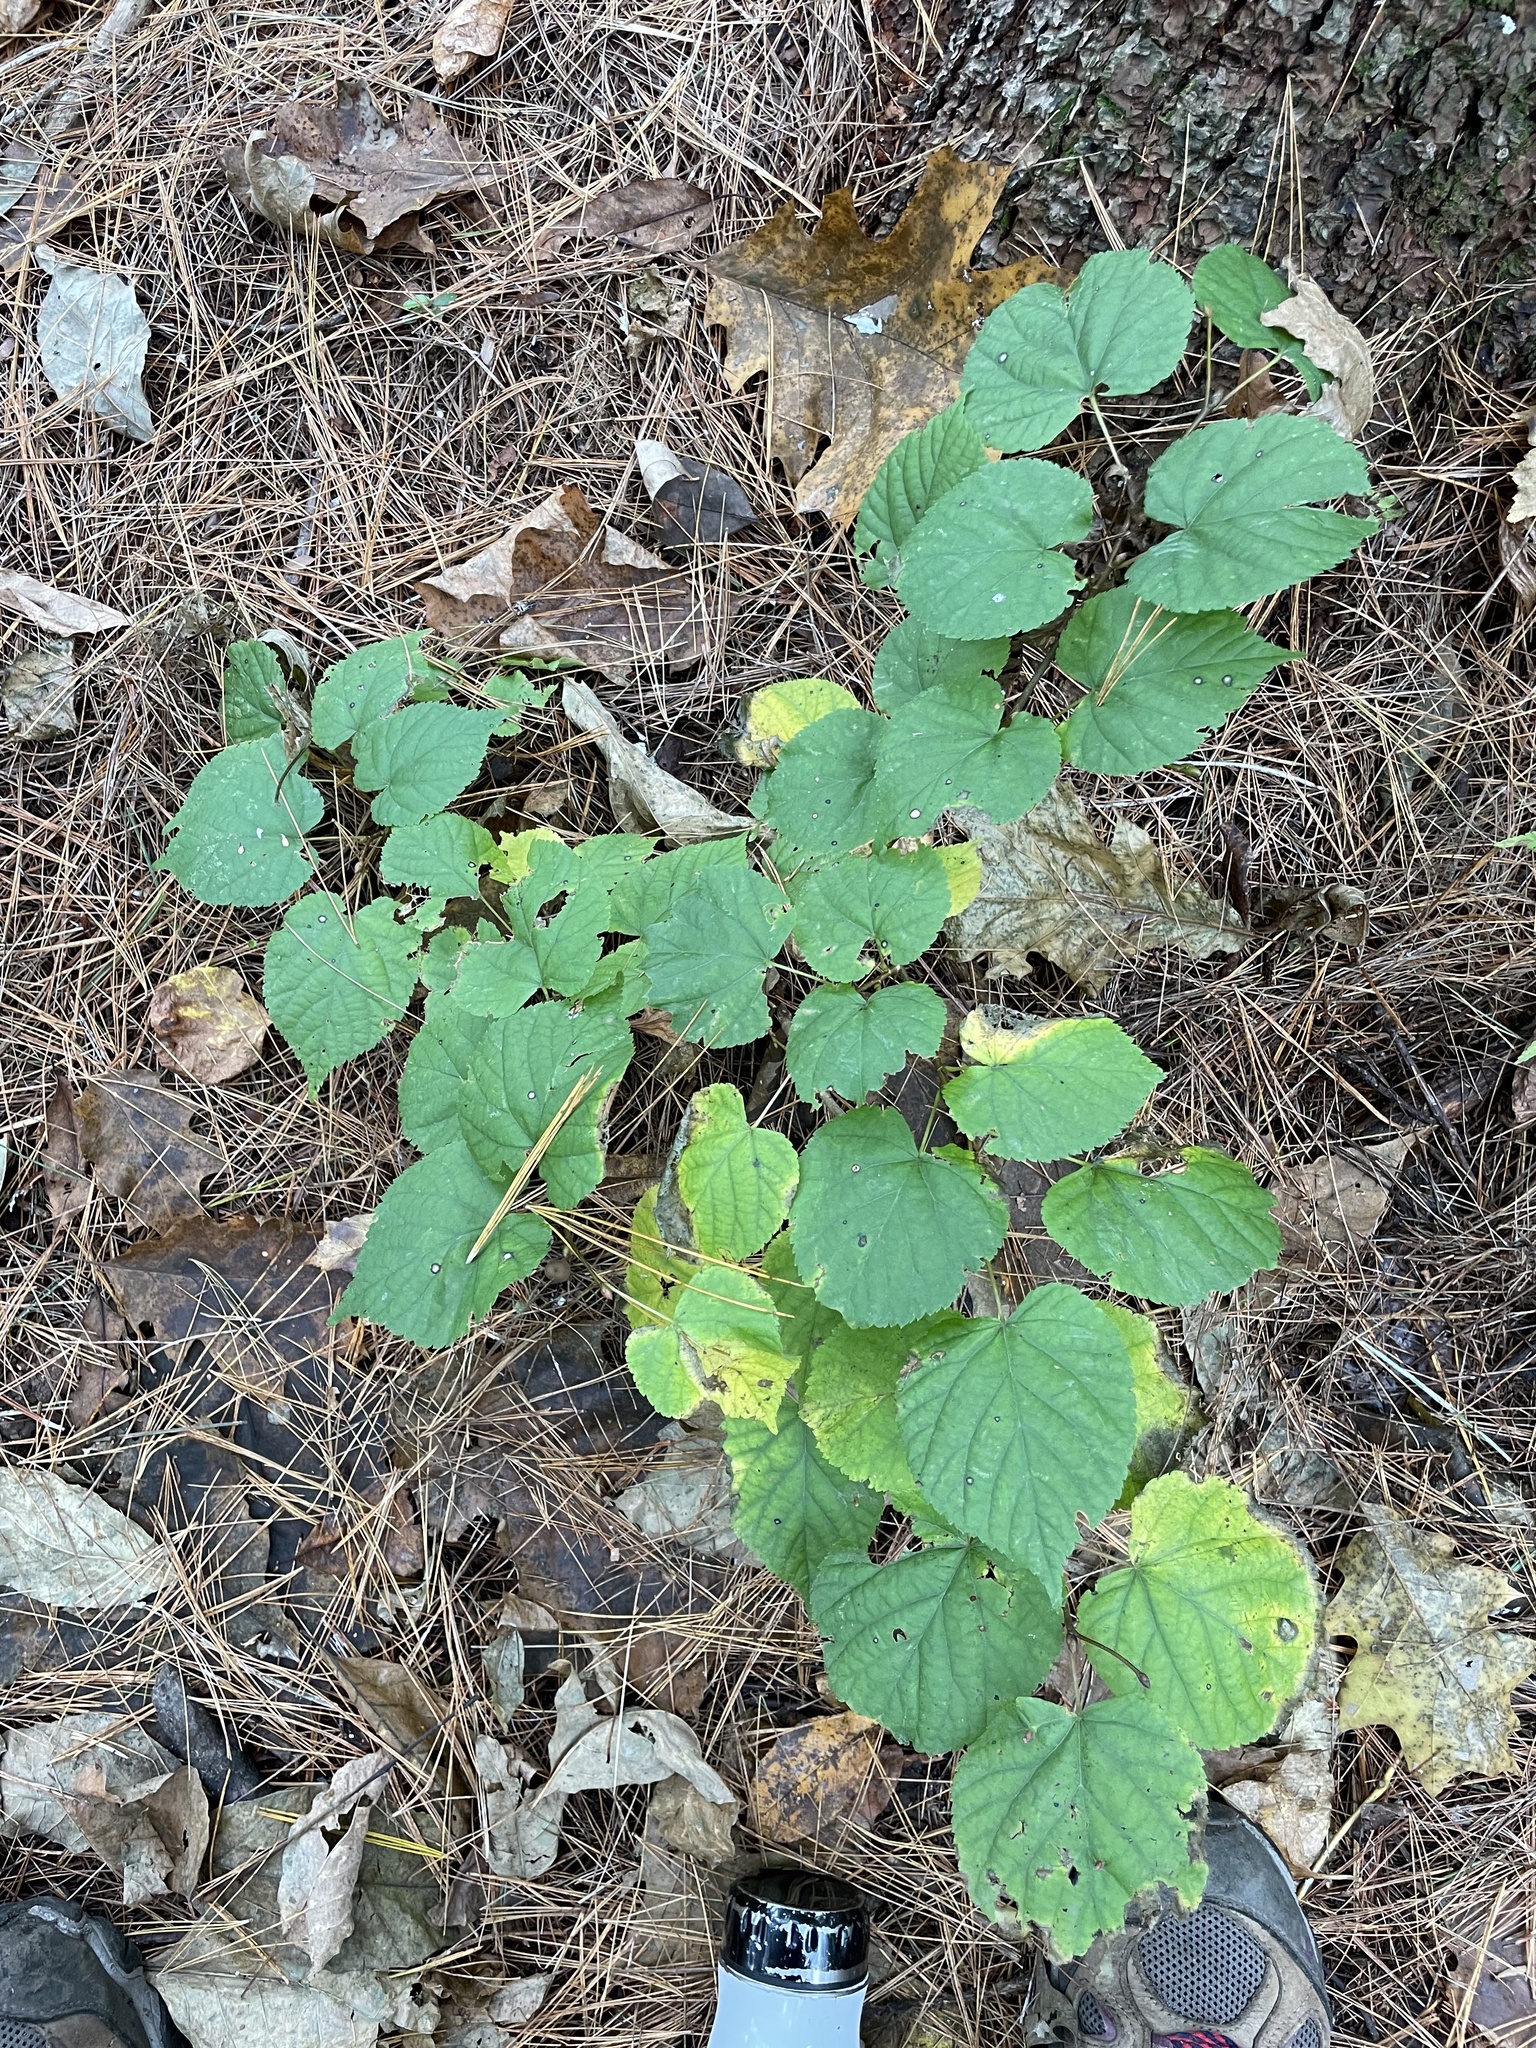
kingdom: Plantae
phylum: Tracheophyta
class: Magnoliopsida
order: Malvales
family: Malvaceae
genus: Tilia
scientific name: Tilia americana
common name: Basswood
